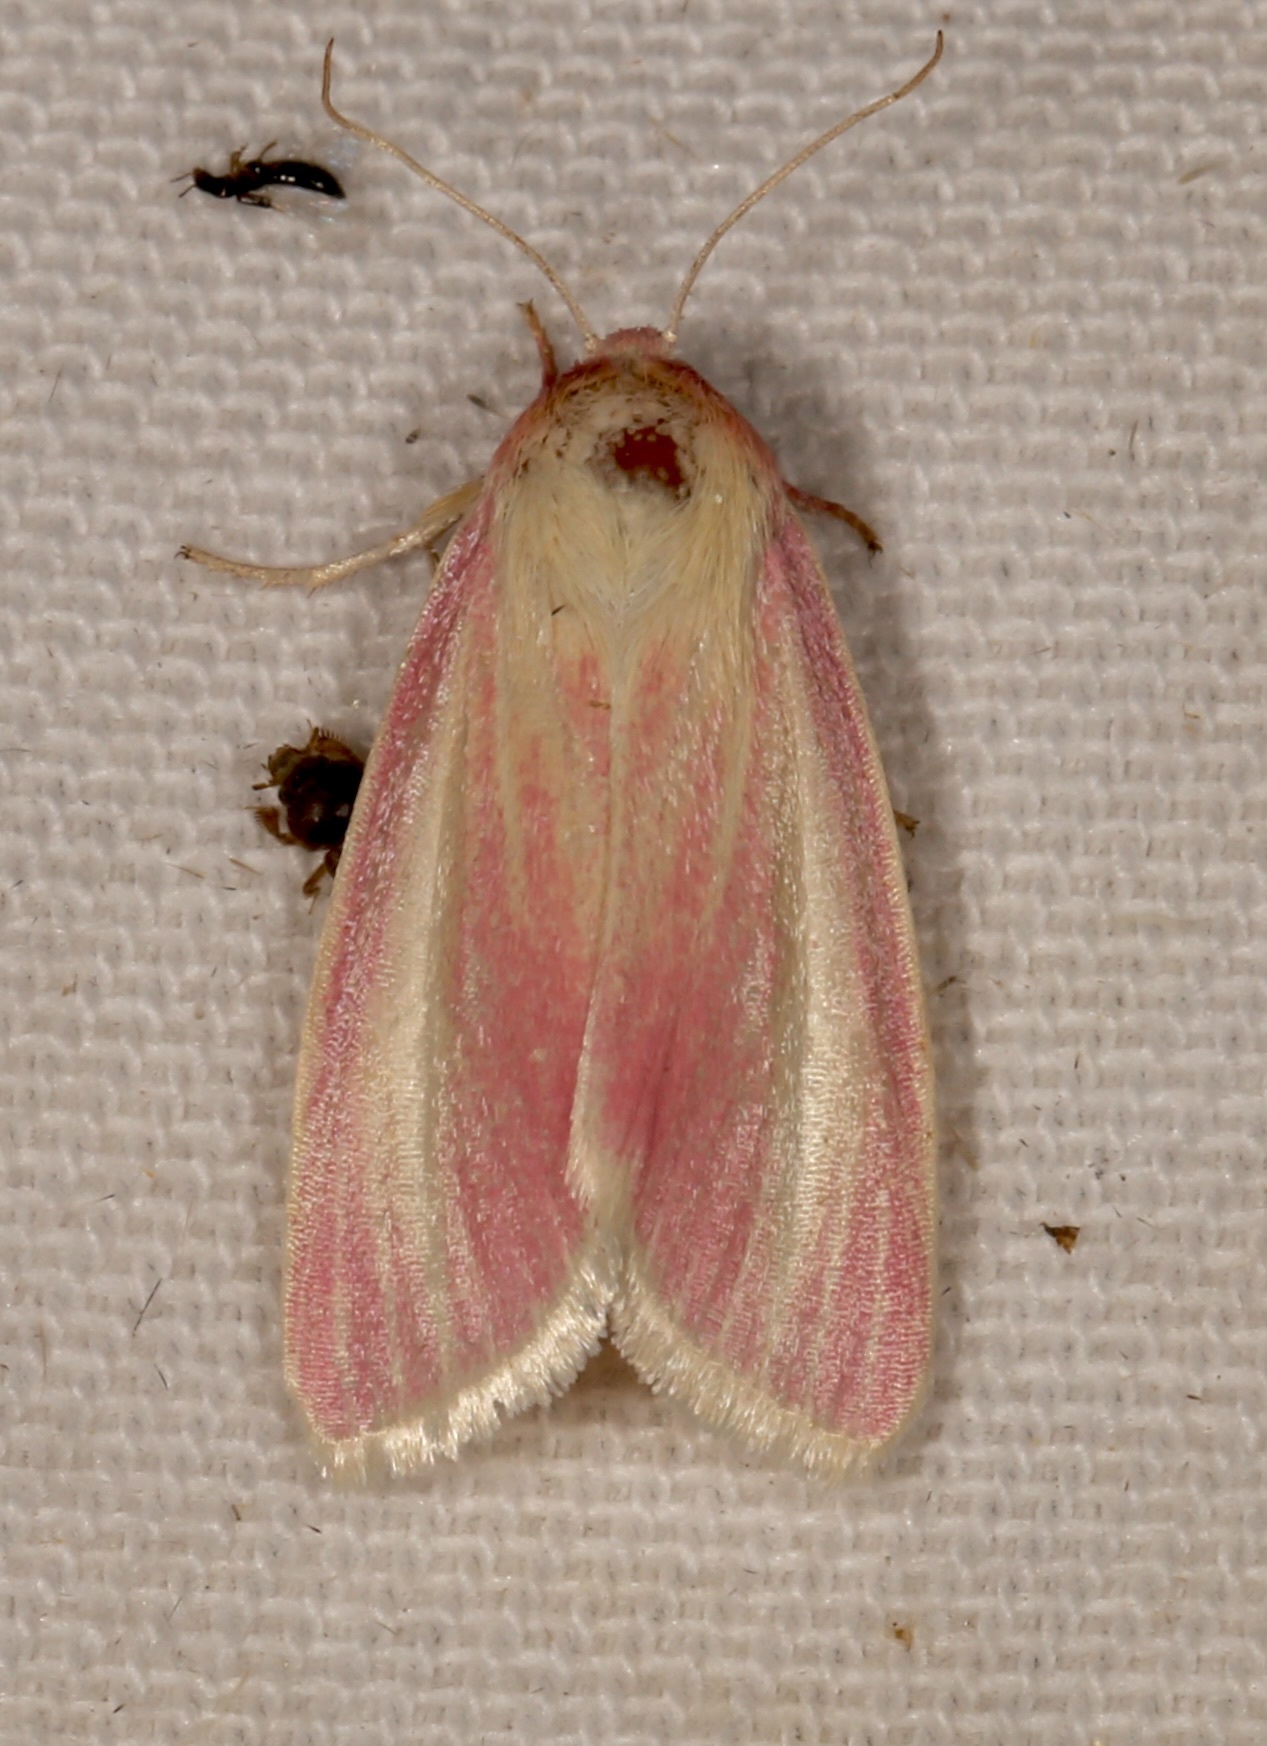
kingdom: Animalia
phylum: Arthropoda
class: Insecta
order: Lepidoptera
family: Noctuidae
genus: Heliocheilus
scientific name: Heliocheilus julia
